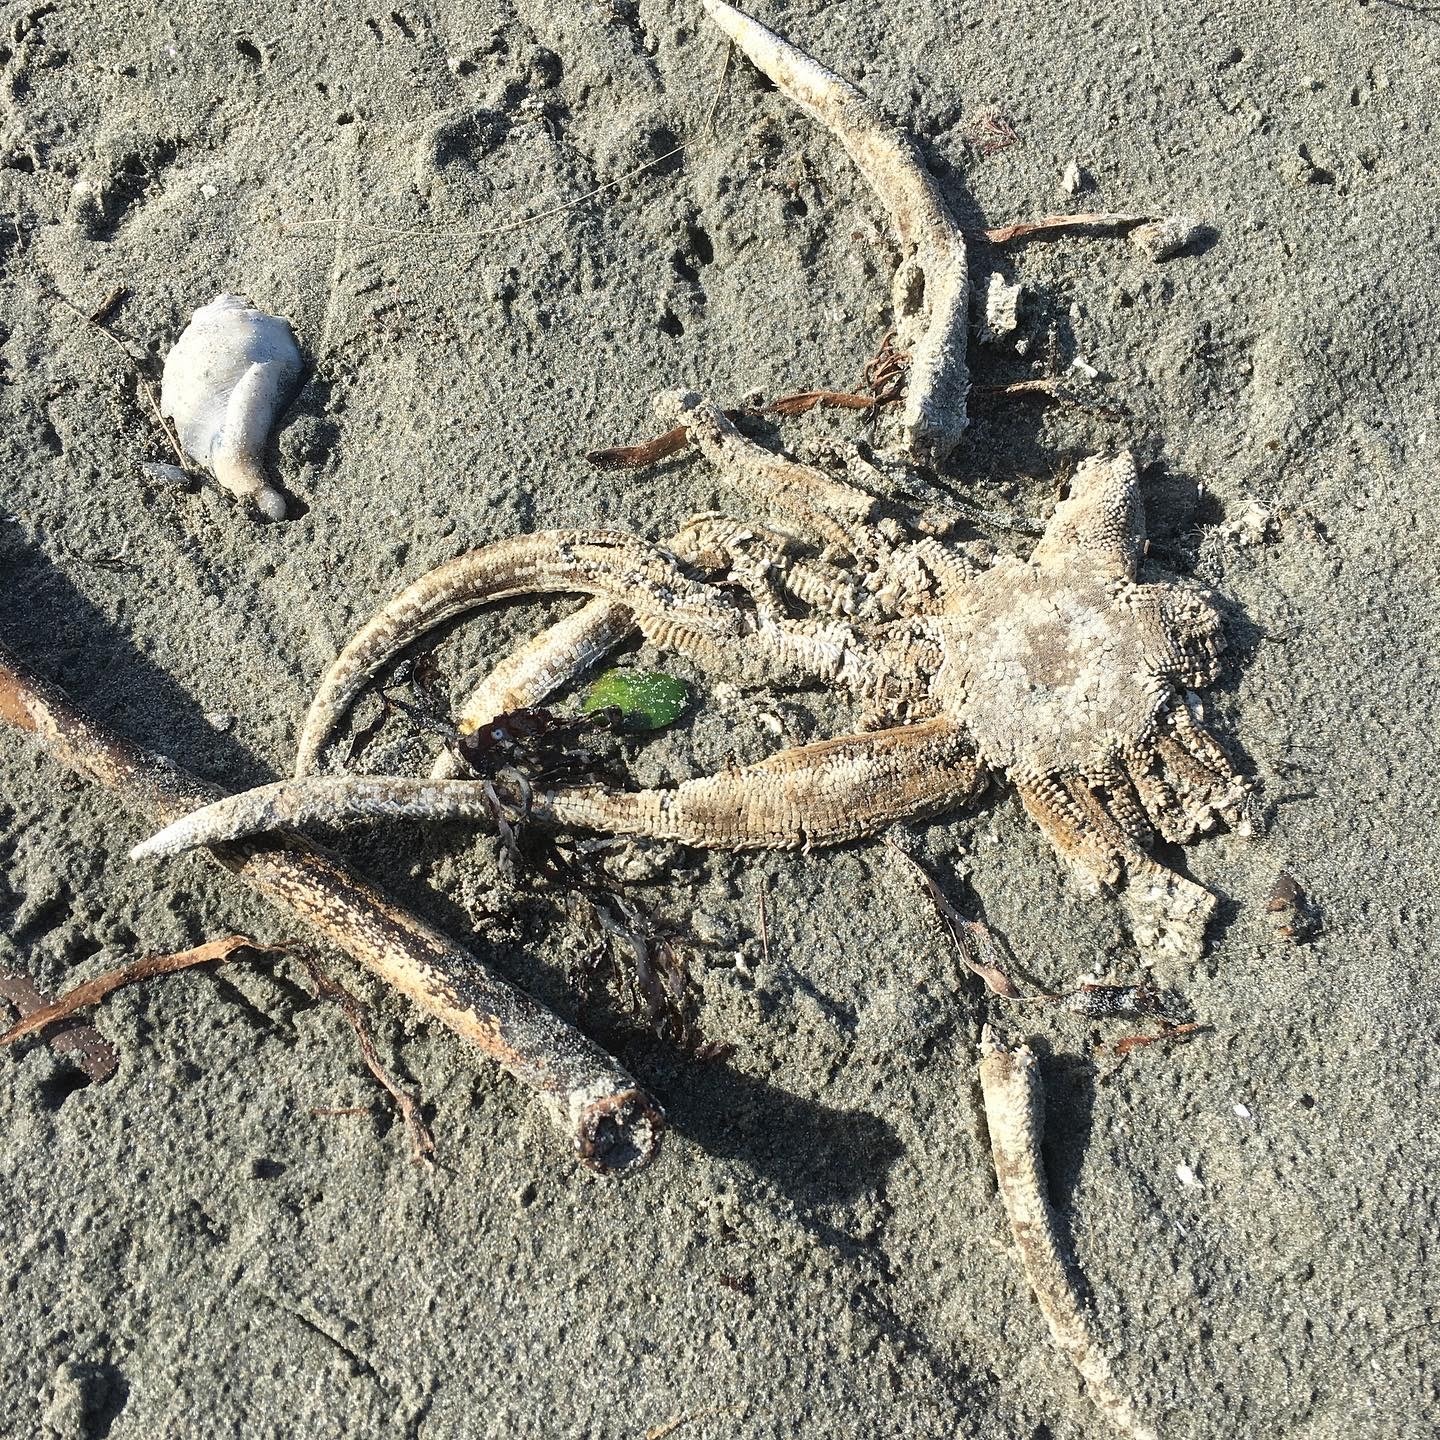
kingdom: Animalia
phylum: Echinodermata
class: Asteroidea
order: Paxillosida
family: Luidiidae
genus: Luidia
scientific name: Luidia australiae
